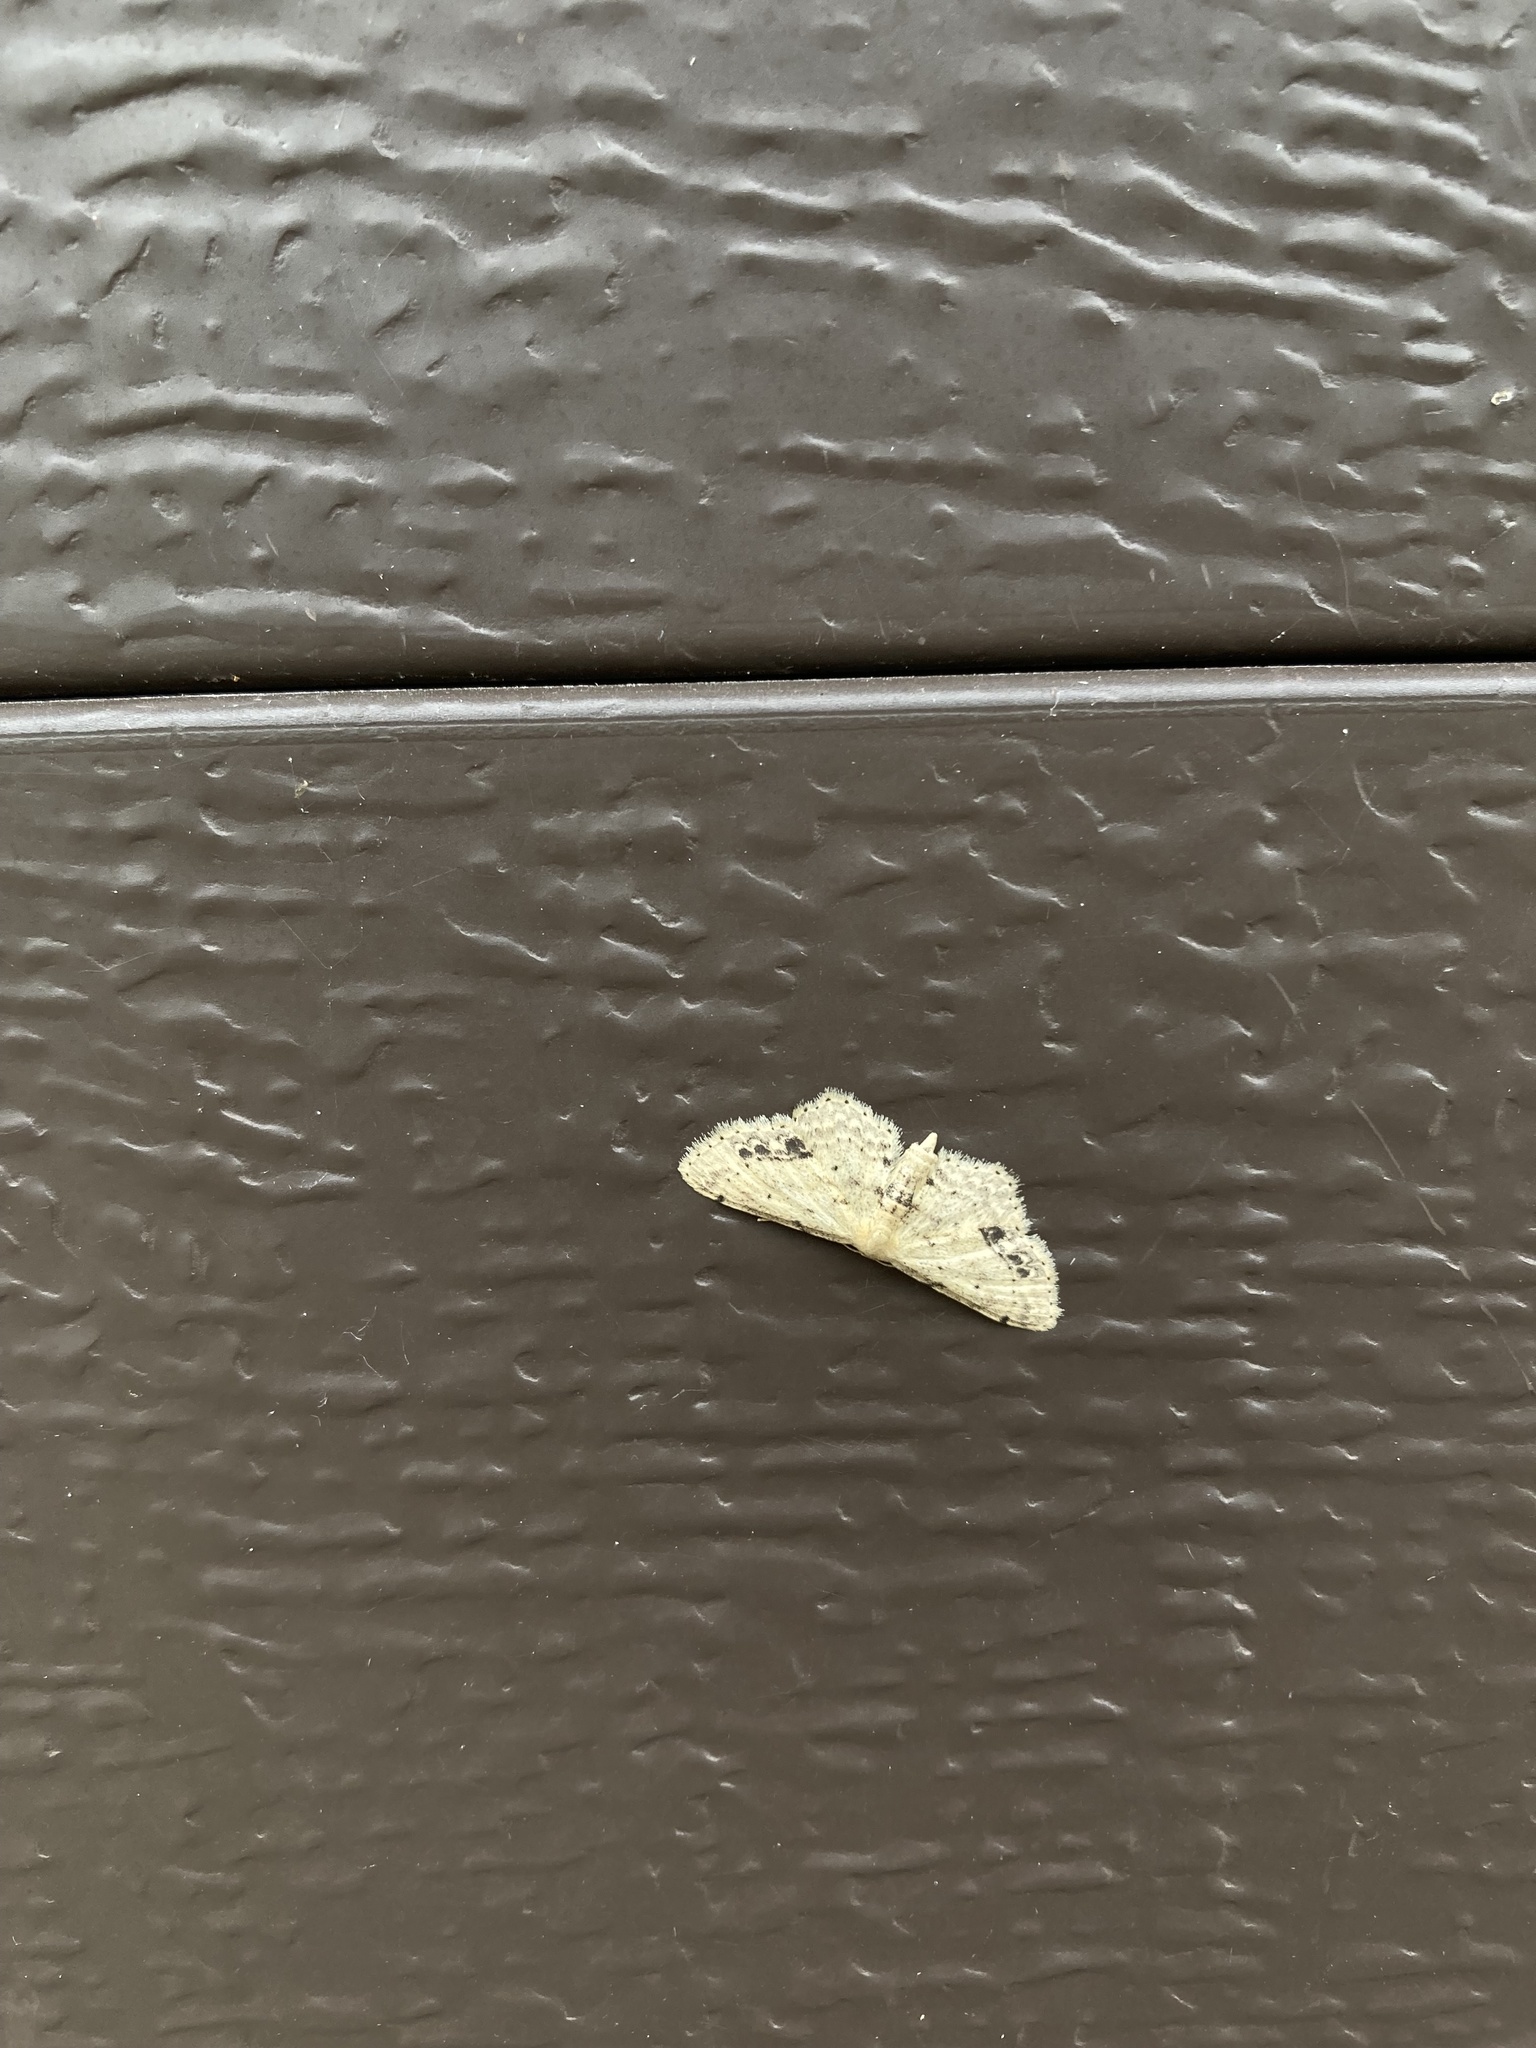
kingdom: Animalia
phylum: Arthropoda
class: Insecta
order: Lepidoptera
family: Geometridae
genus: Idaea
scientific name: Idaea dimidiata
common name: Single-dotted wave
